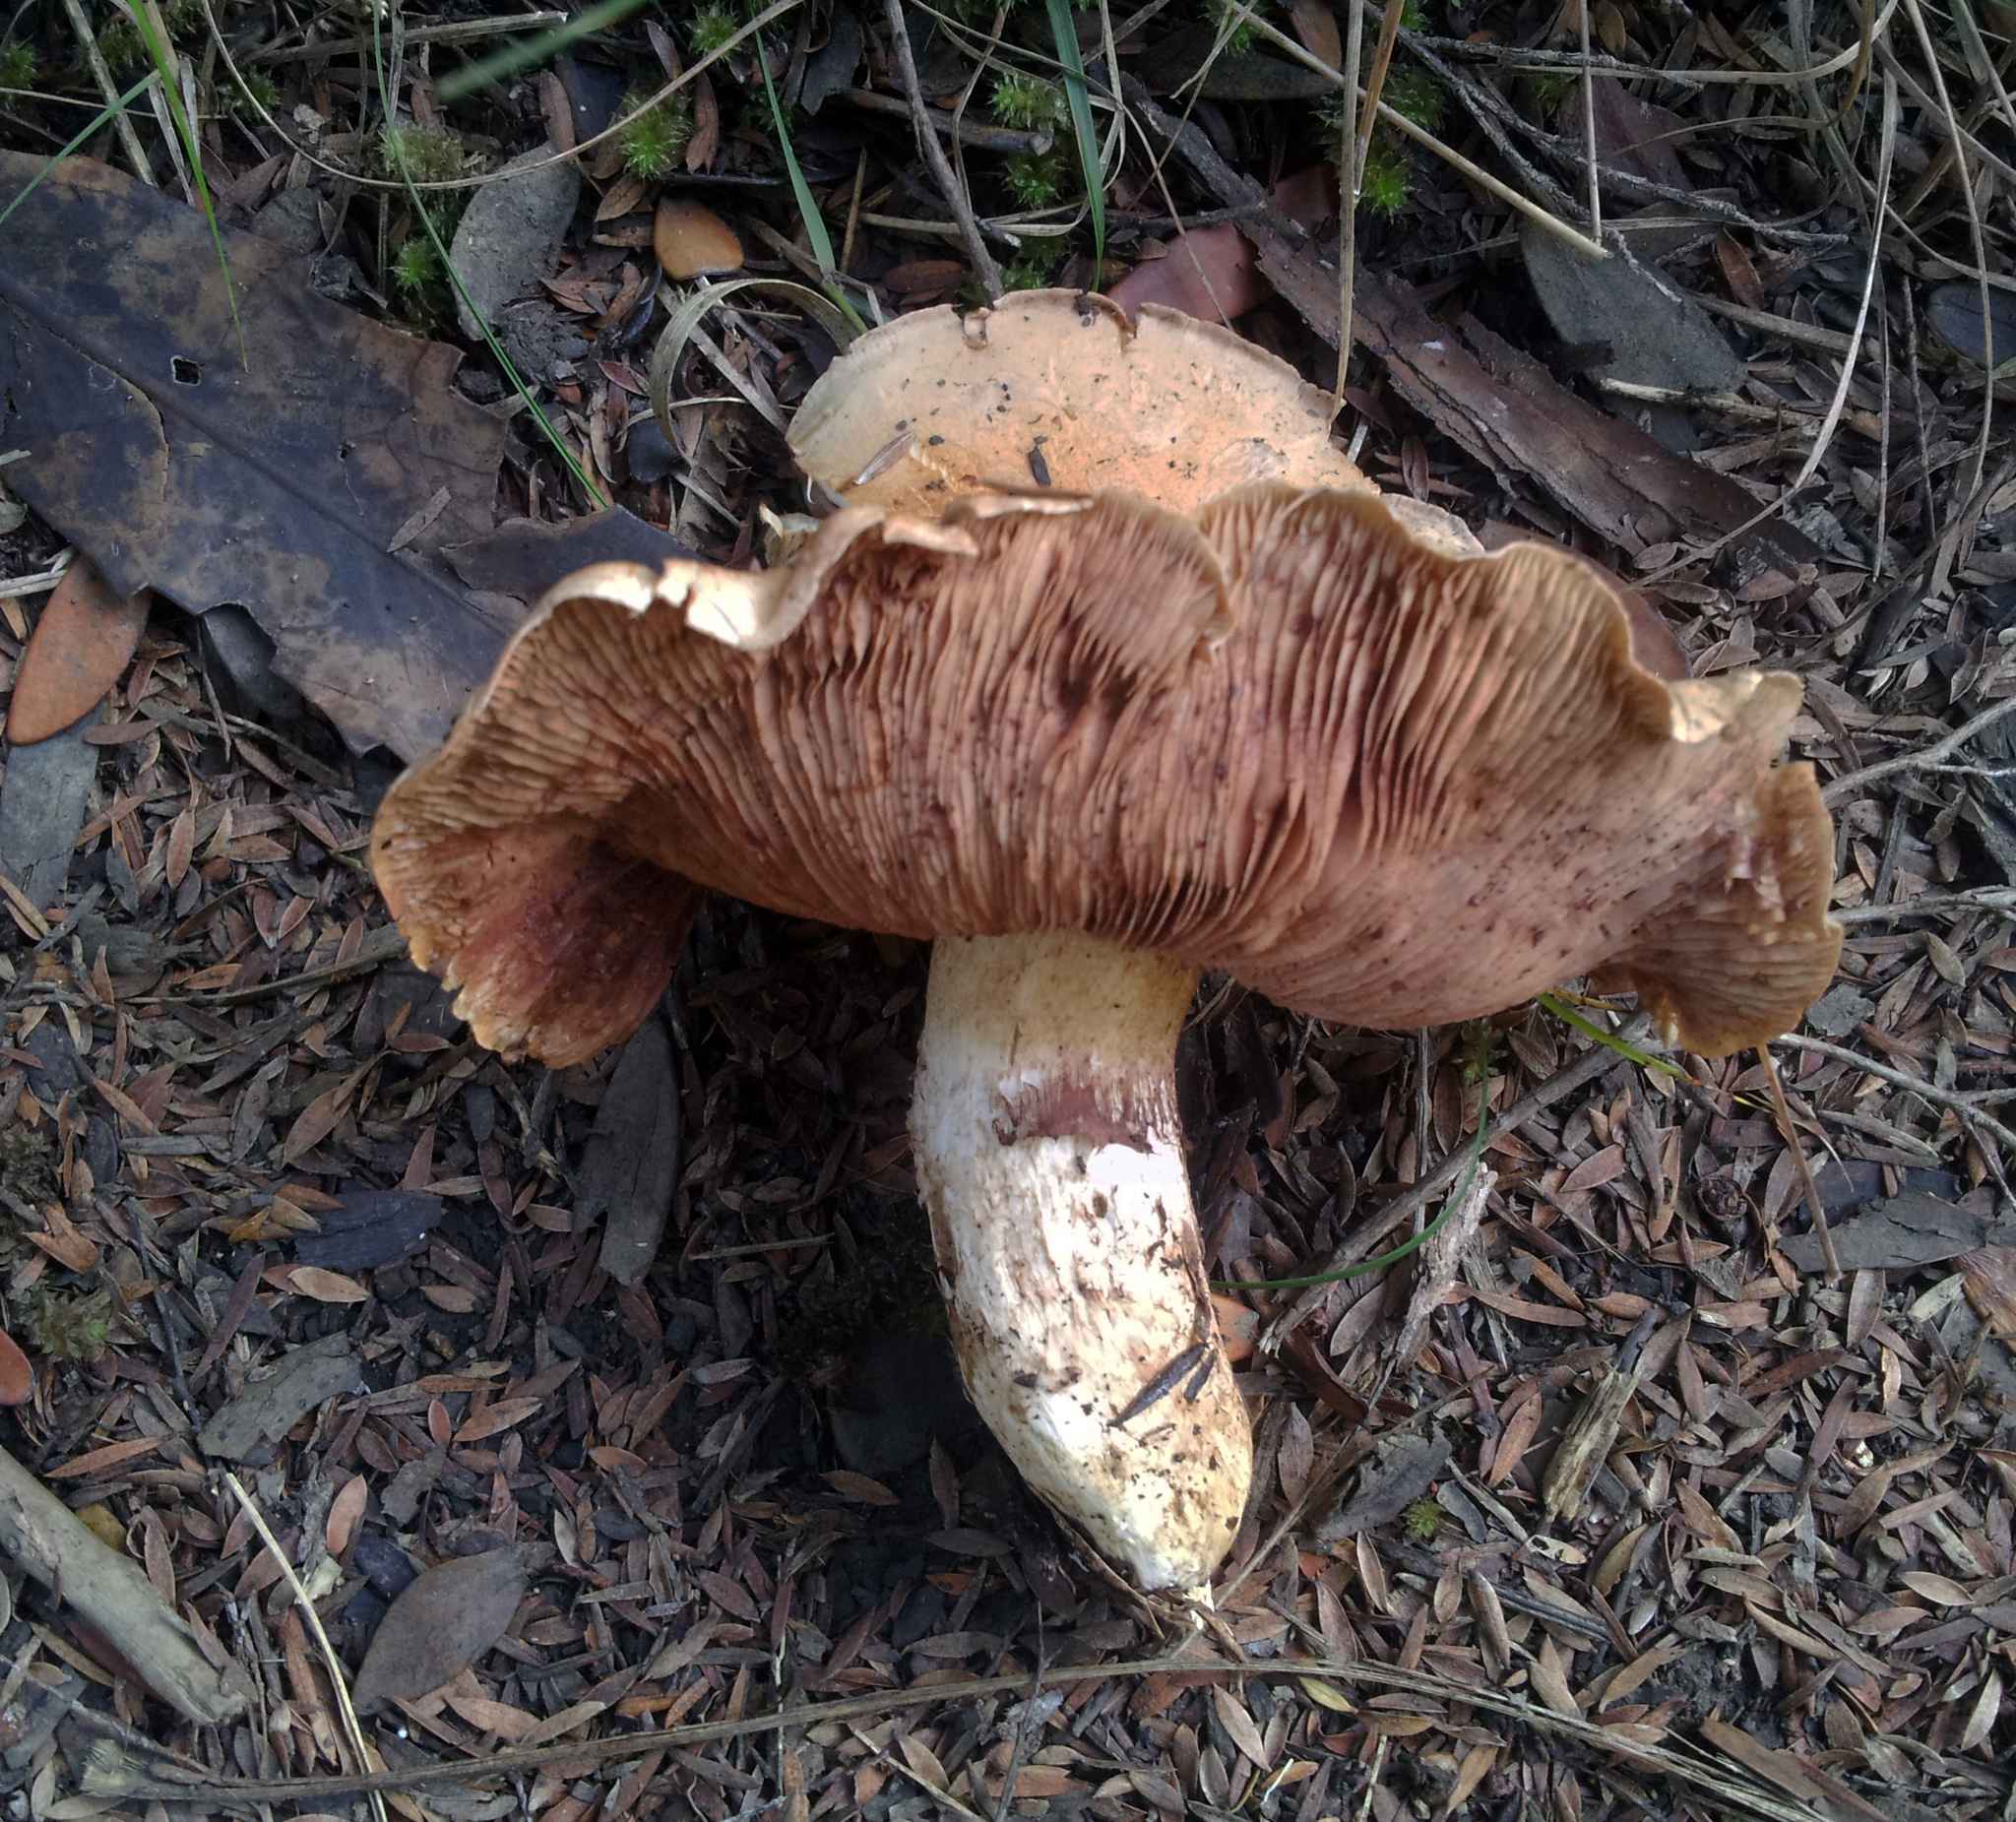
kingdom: Fungi
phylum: Basidiomycota
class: Agaricomycetes
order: Agaricales
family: Hymenogastraceae
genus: Hebeloma
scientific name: Hebeloma victoriense
